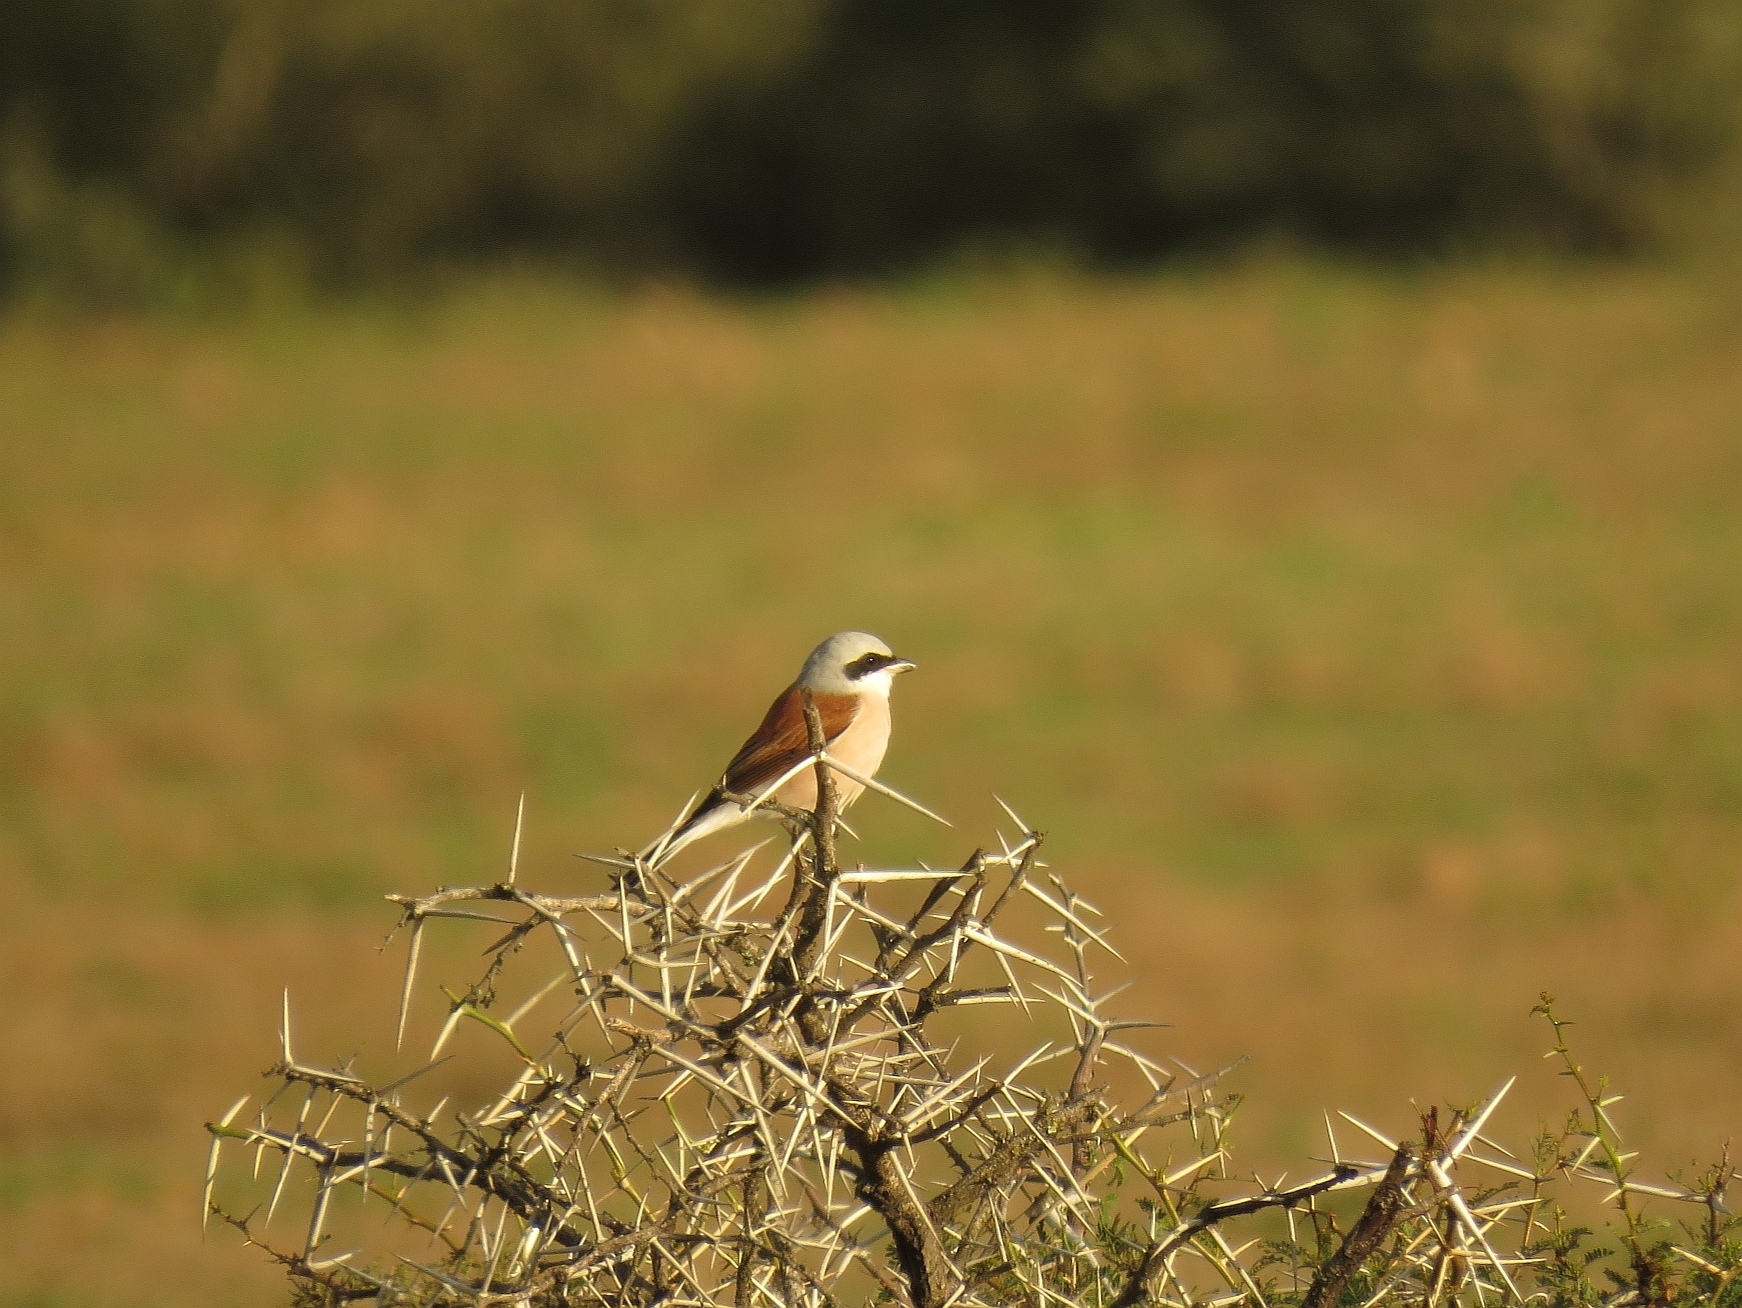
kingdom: Animalia
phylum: Chordata
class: Aves
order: Passeriformes
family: Laniidae
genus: Lanius
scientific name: Lanius collurio
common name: Red-backed shrike
